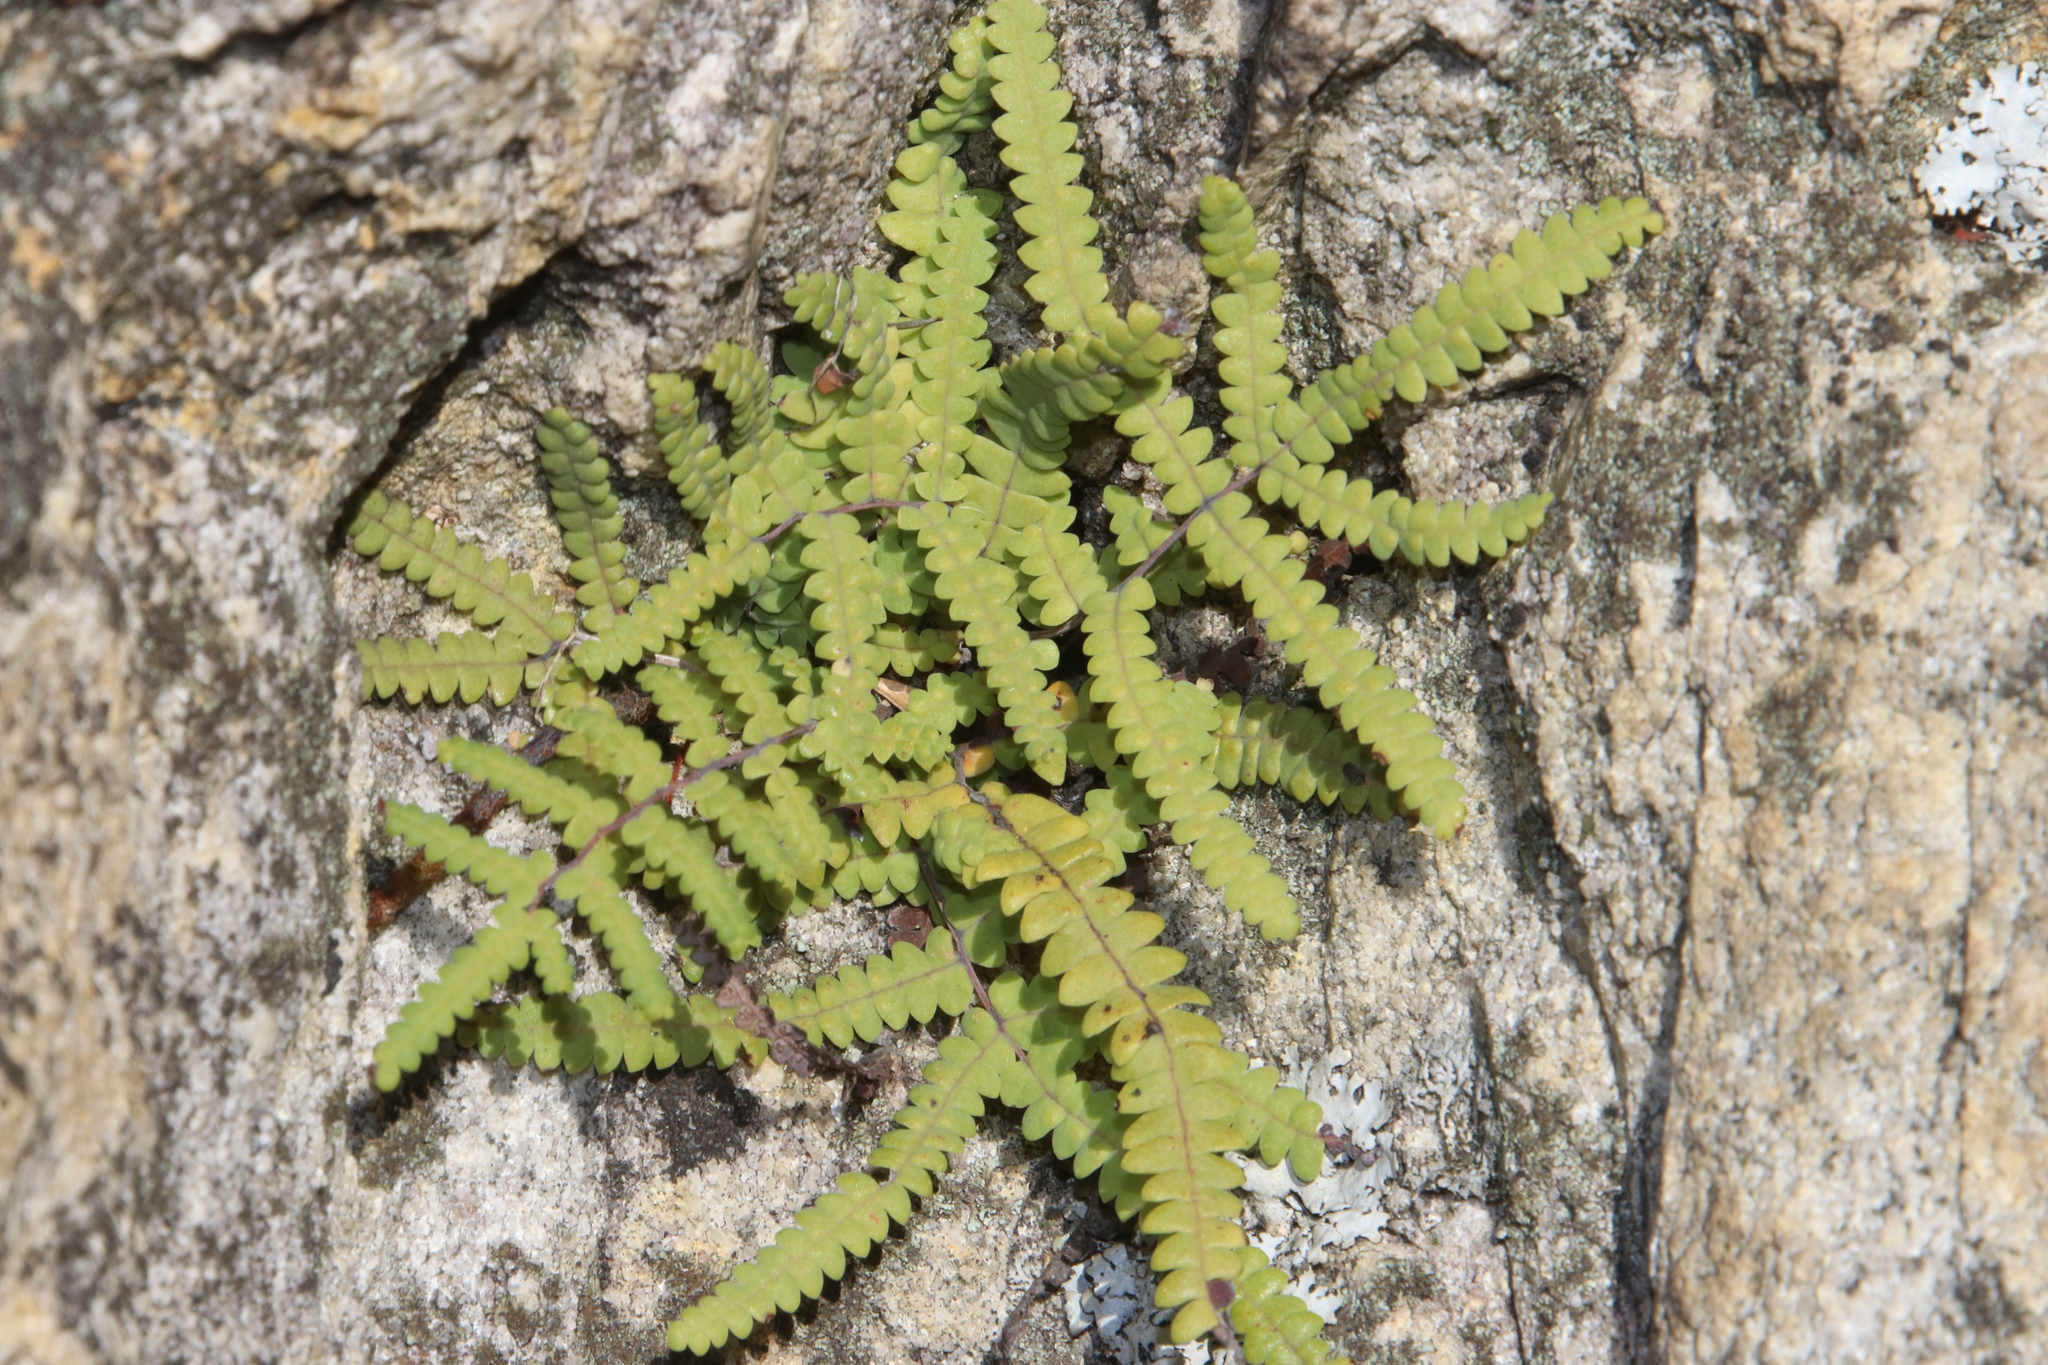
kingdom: Plantae
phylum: Tracheophyta
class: Polypodiopsida
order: Gleicheniales
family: Gleicheniaceae
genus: Gleichenia
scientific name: Gleichenia polypodioides
